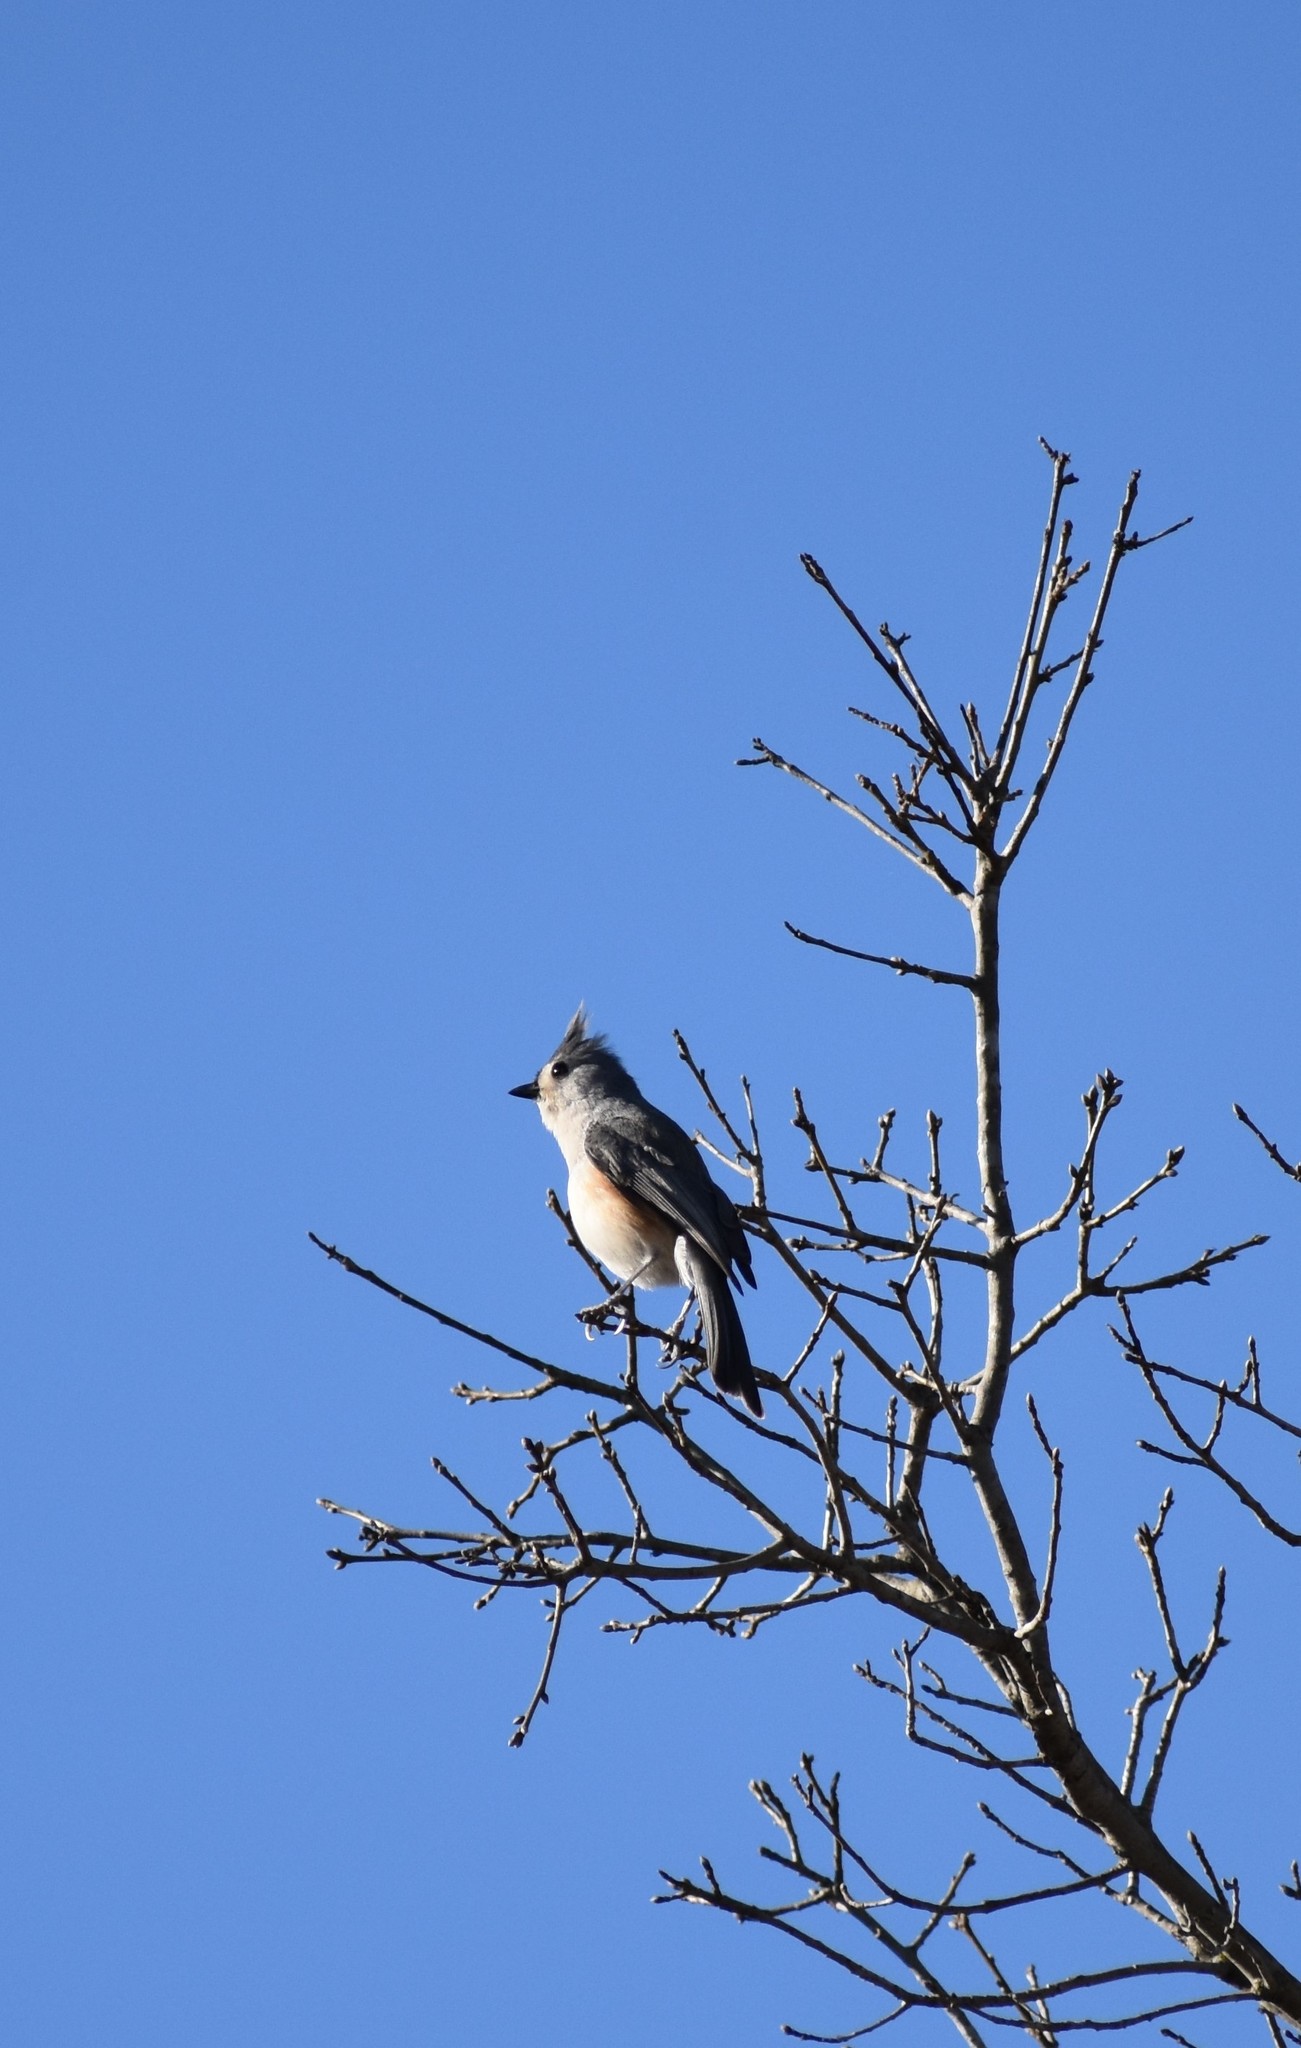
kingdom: Animalia
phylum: Chordata
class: Aves
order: Passeriformes
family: Paridae
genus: Baeolophus
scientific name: Baeolophus bicolor
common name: Tufted titmouse
